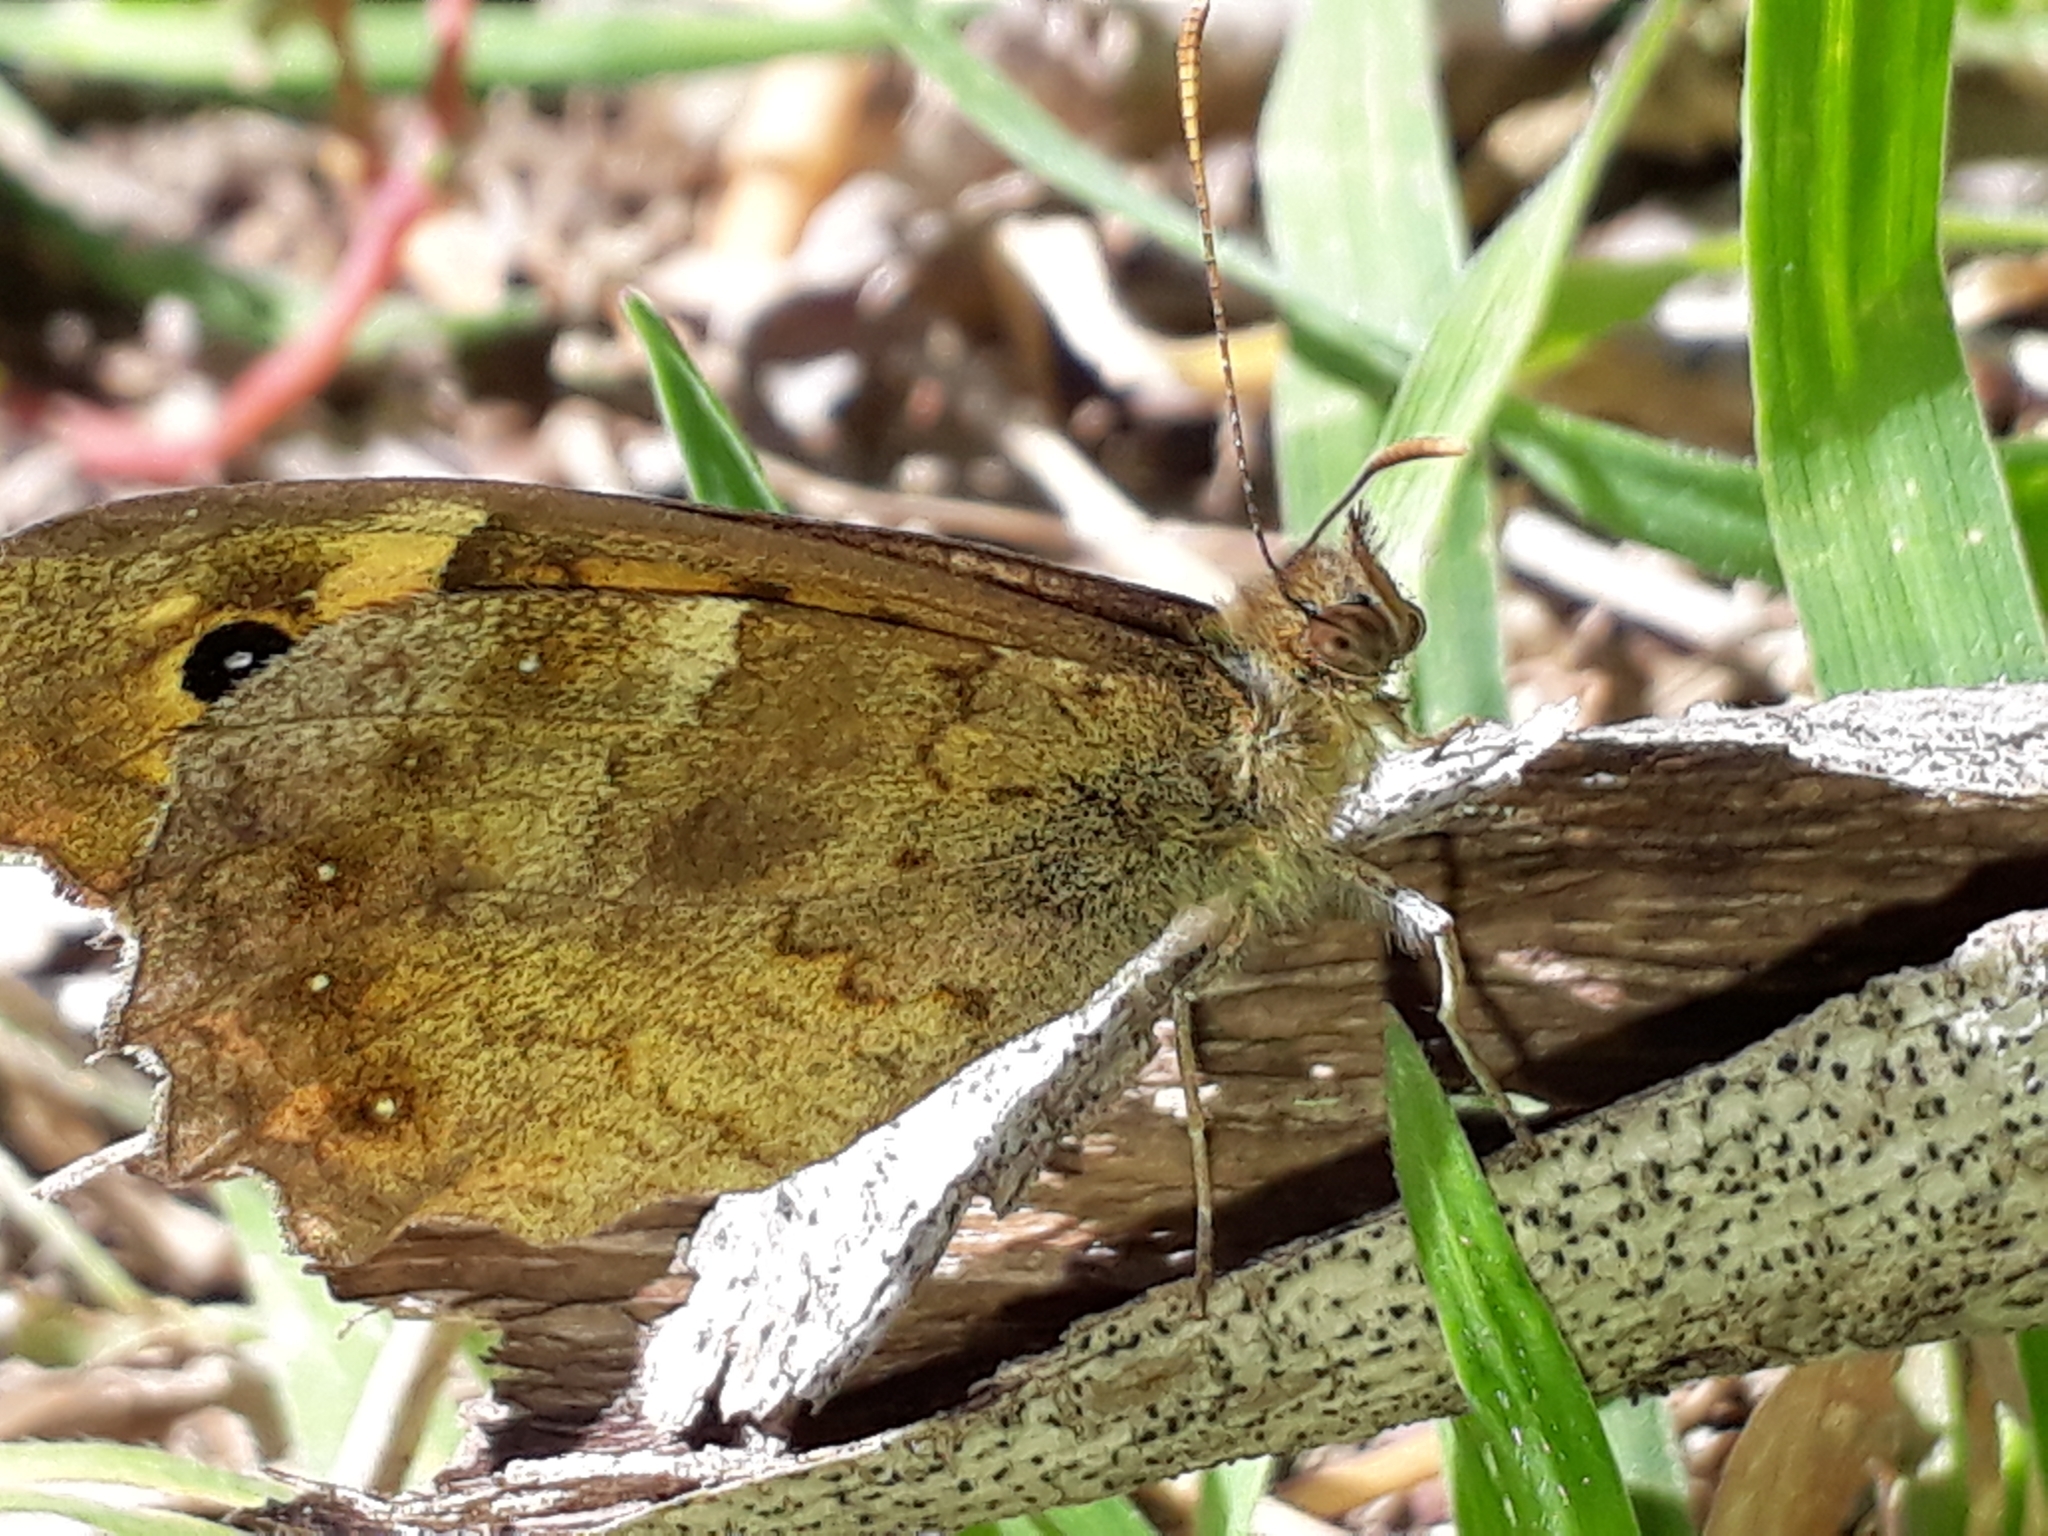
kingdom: Animalia
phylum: Arthropoda
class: Insecta
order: Lepidoptera
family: Nymphalidae
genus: Pararge
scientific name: Pararge aegeria
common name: Speckled wood
